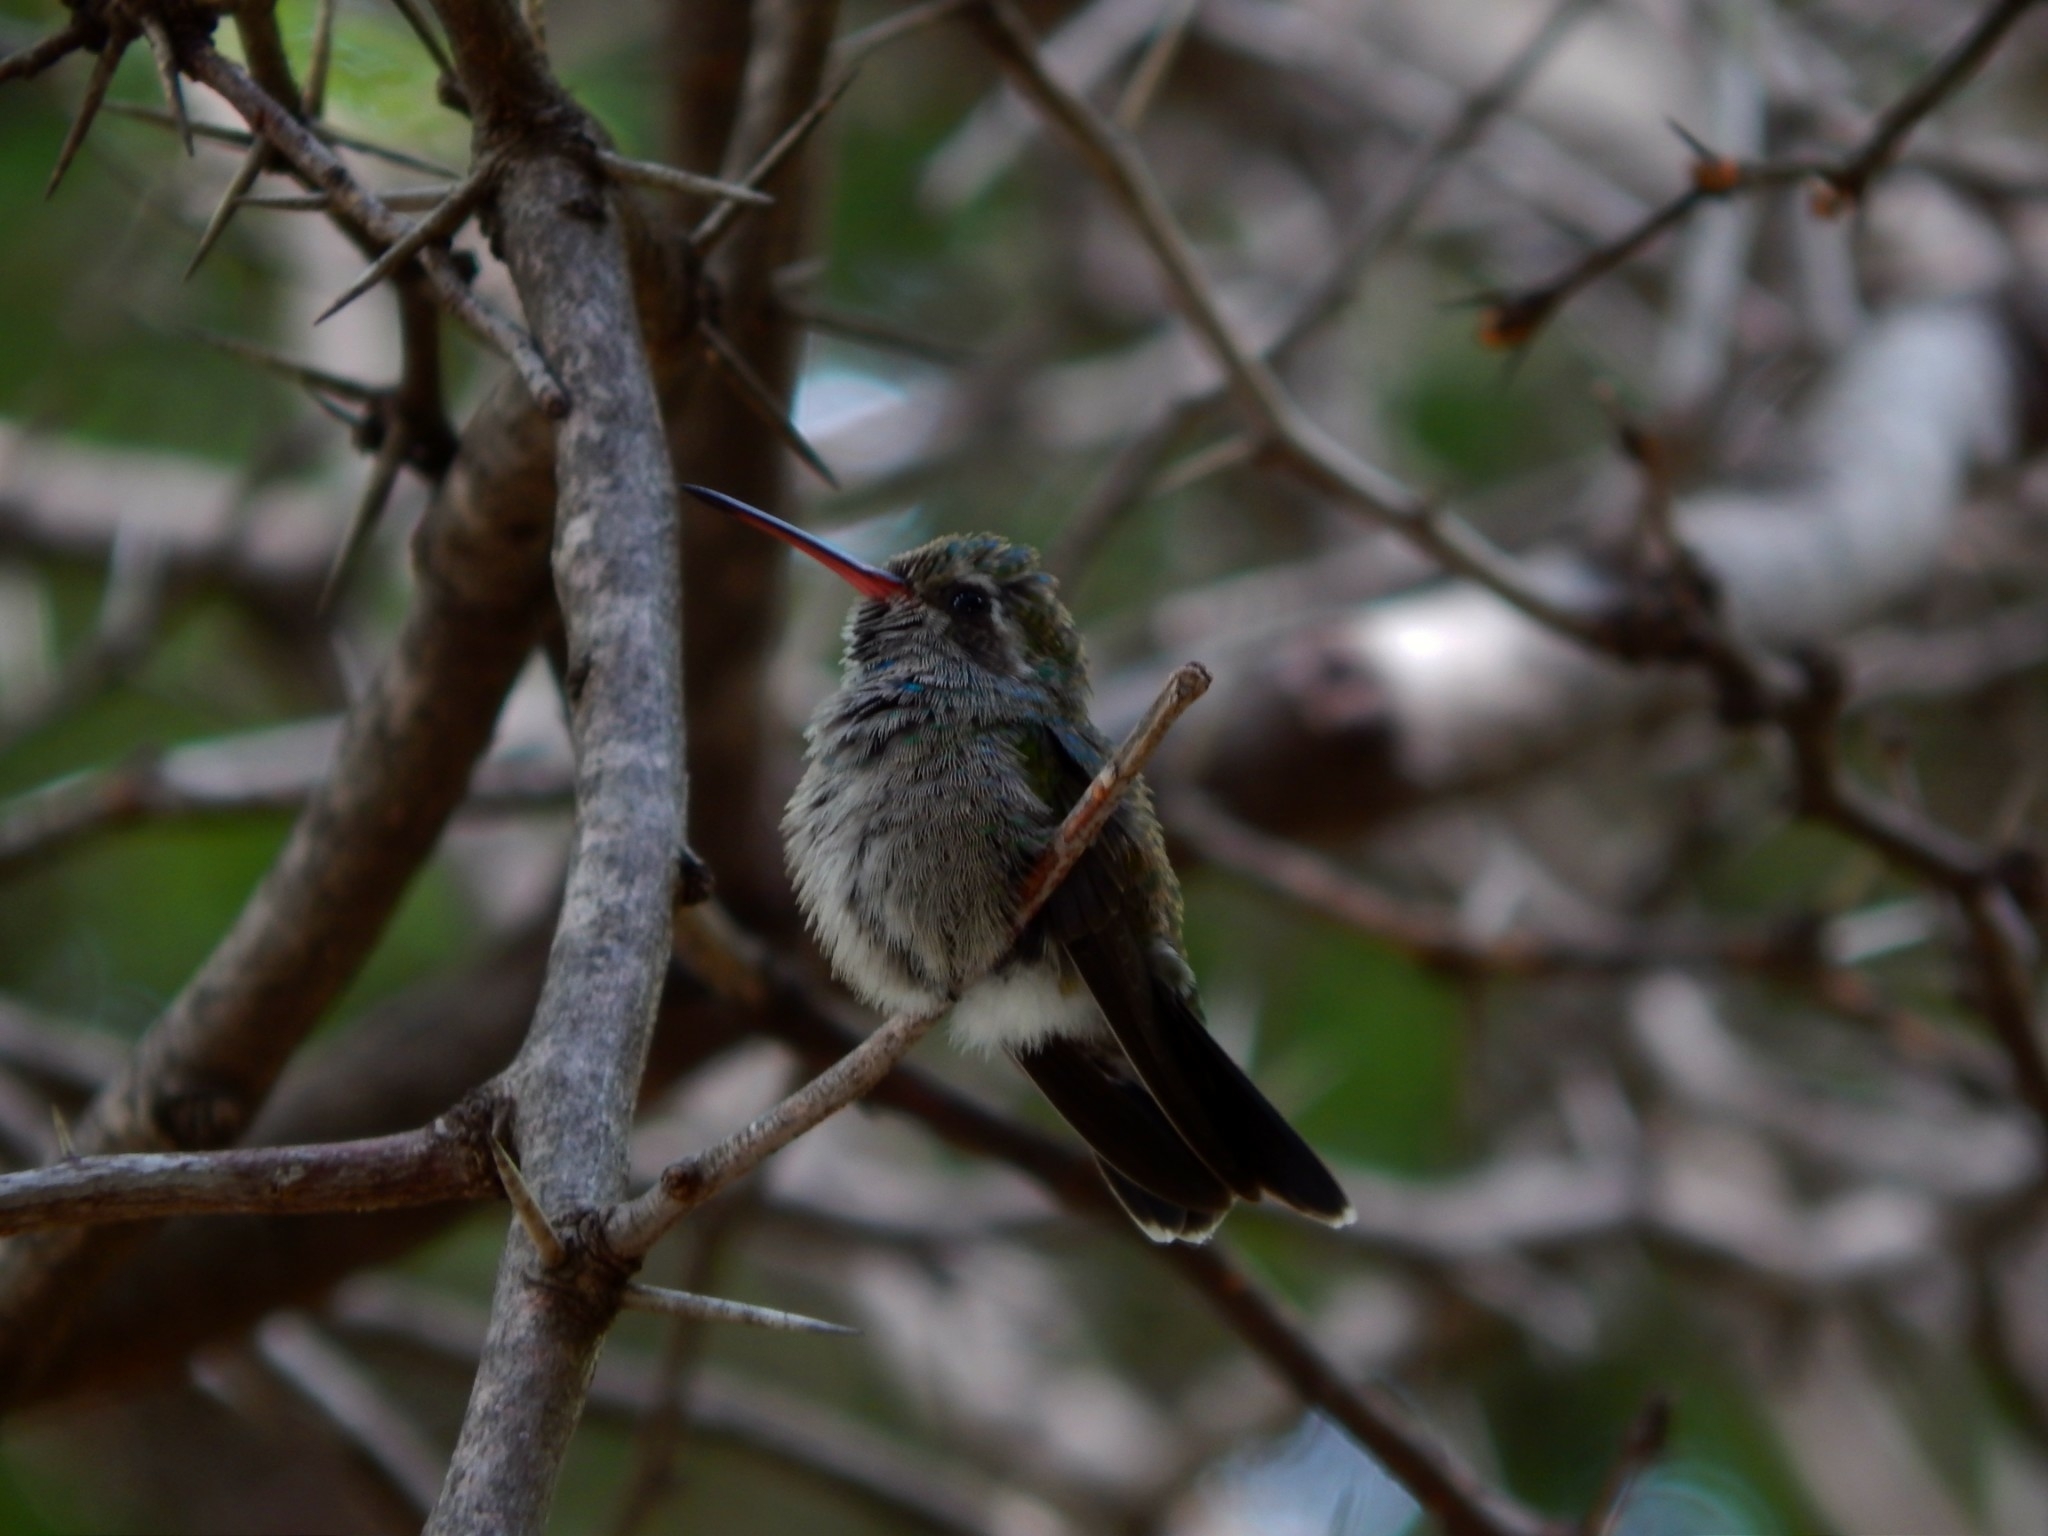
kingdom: Animalia
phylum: Chordata
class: Aves
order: Apodiformes
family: Trochilidae
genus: Cynanthus
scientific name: Cynanthus latirostris
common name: Broad-billed hummingbird
